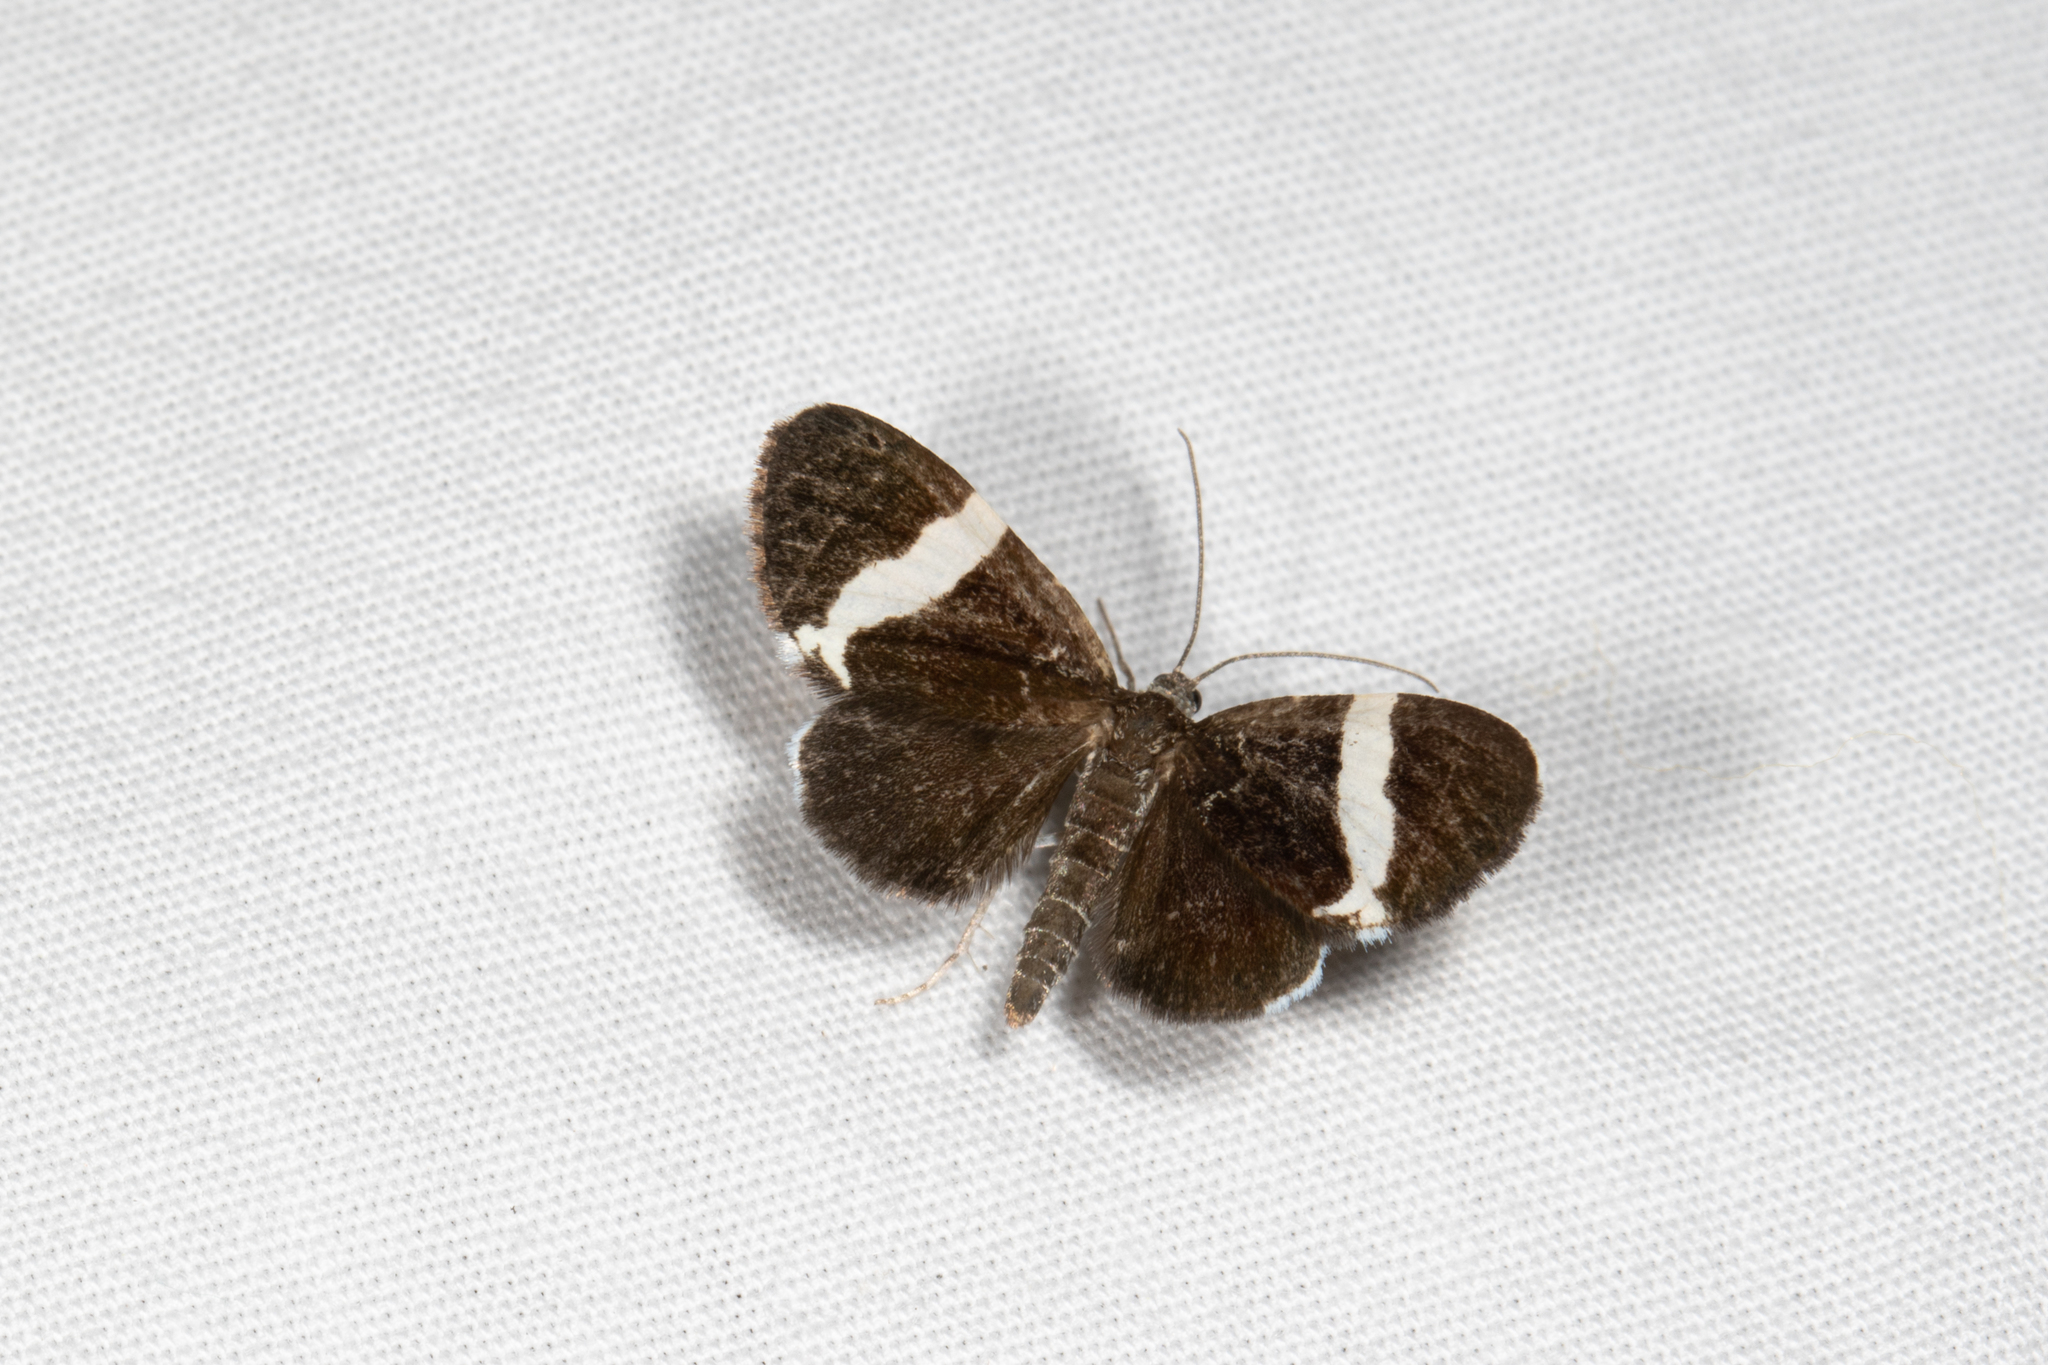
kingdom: Animalia
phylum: Arthropoda
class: Insecta
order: Lepidoptera
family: Geometridae
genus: Trichodezia
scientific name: Trichodezia albovittata
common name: White striped black
